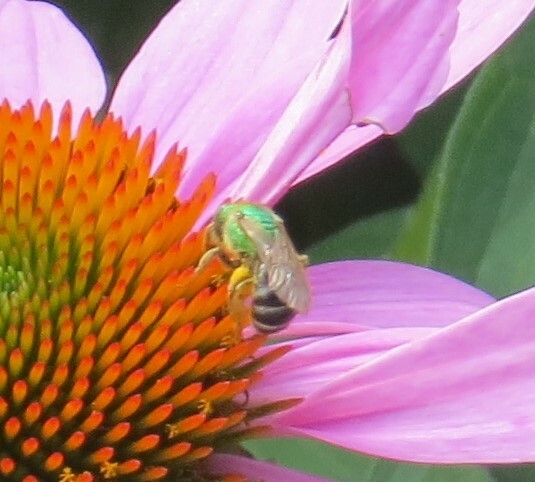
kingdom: Animalia
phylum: Arthropoda
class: Insecta
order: Hymenoptera
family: Halictidae
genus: Agapostemon
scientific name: Agapostemon virescens
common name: Bicolored striped sweat bee
